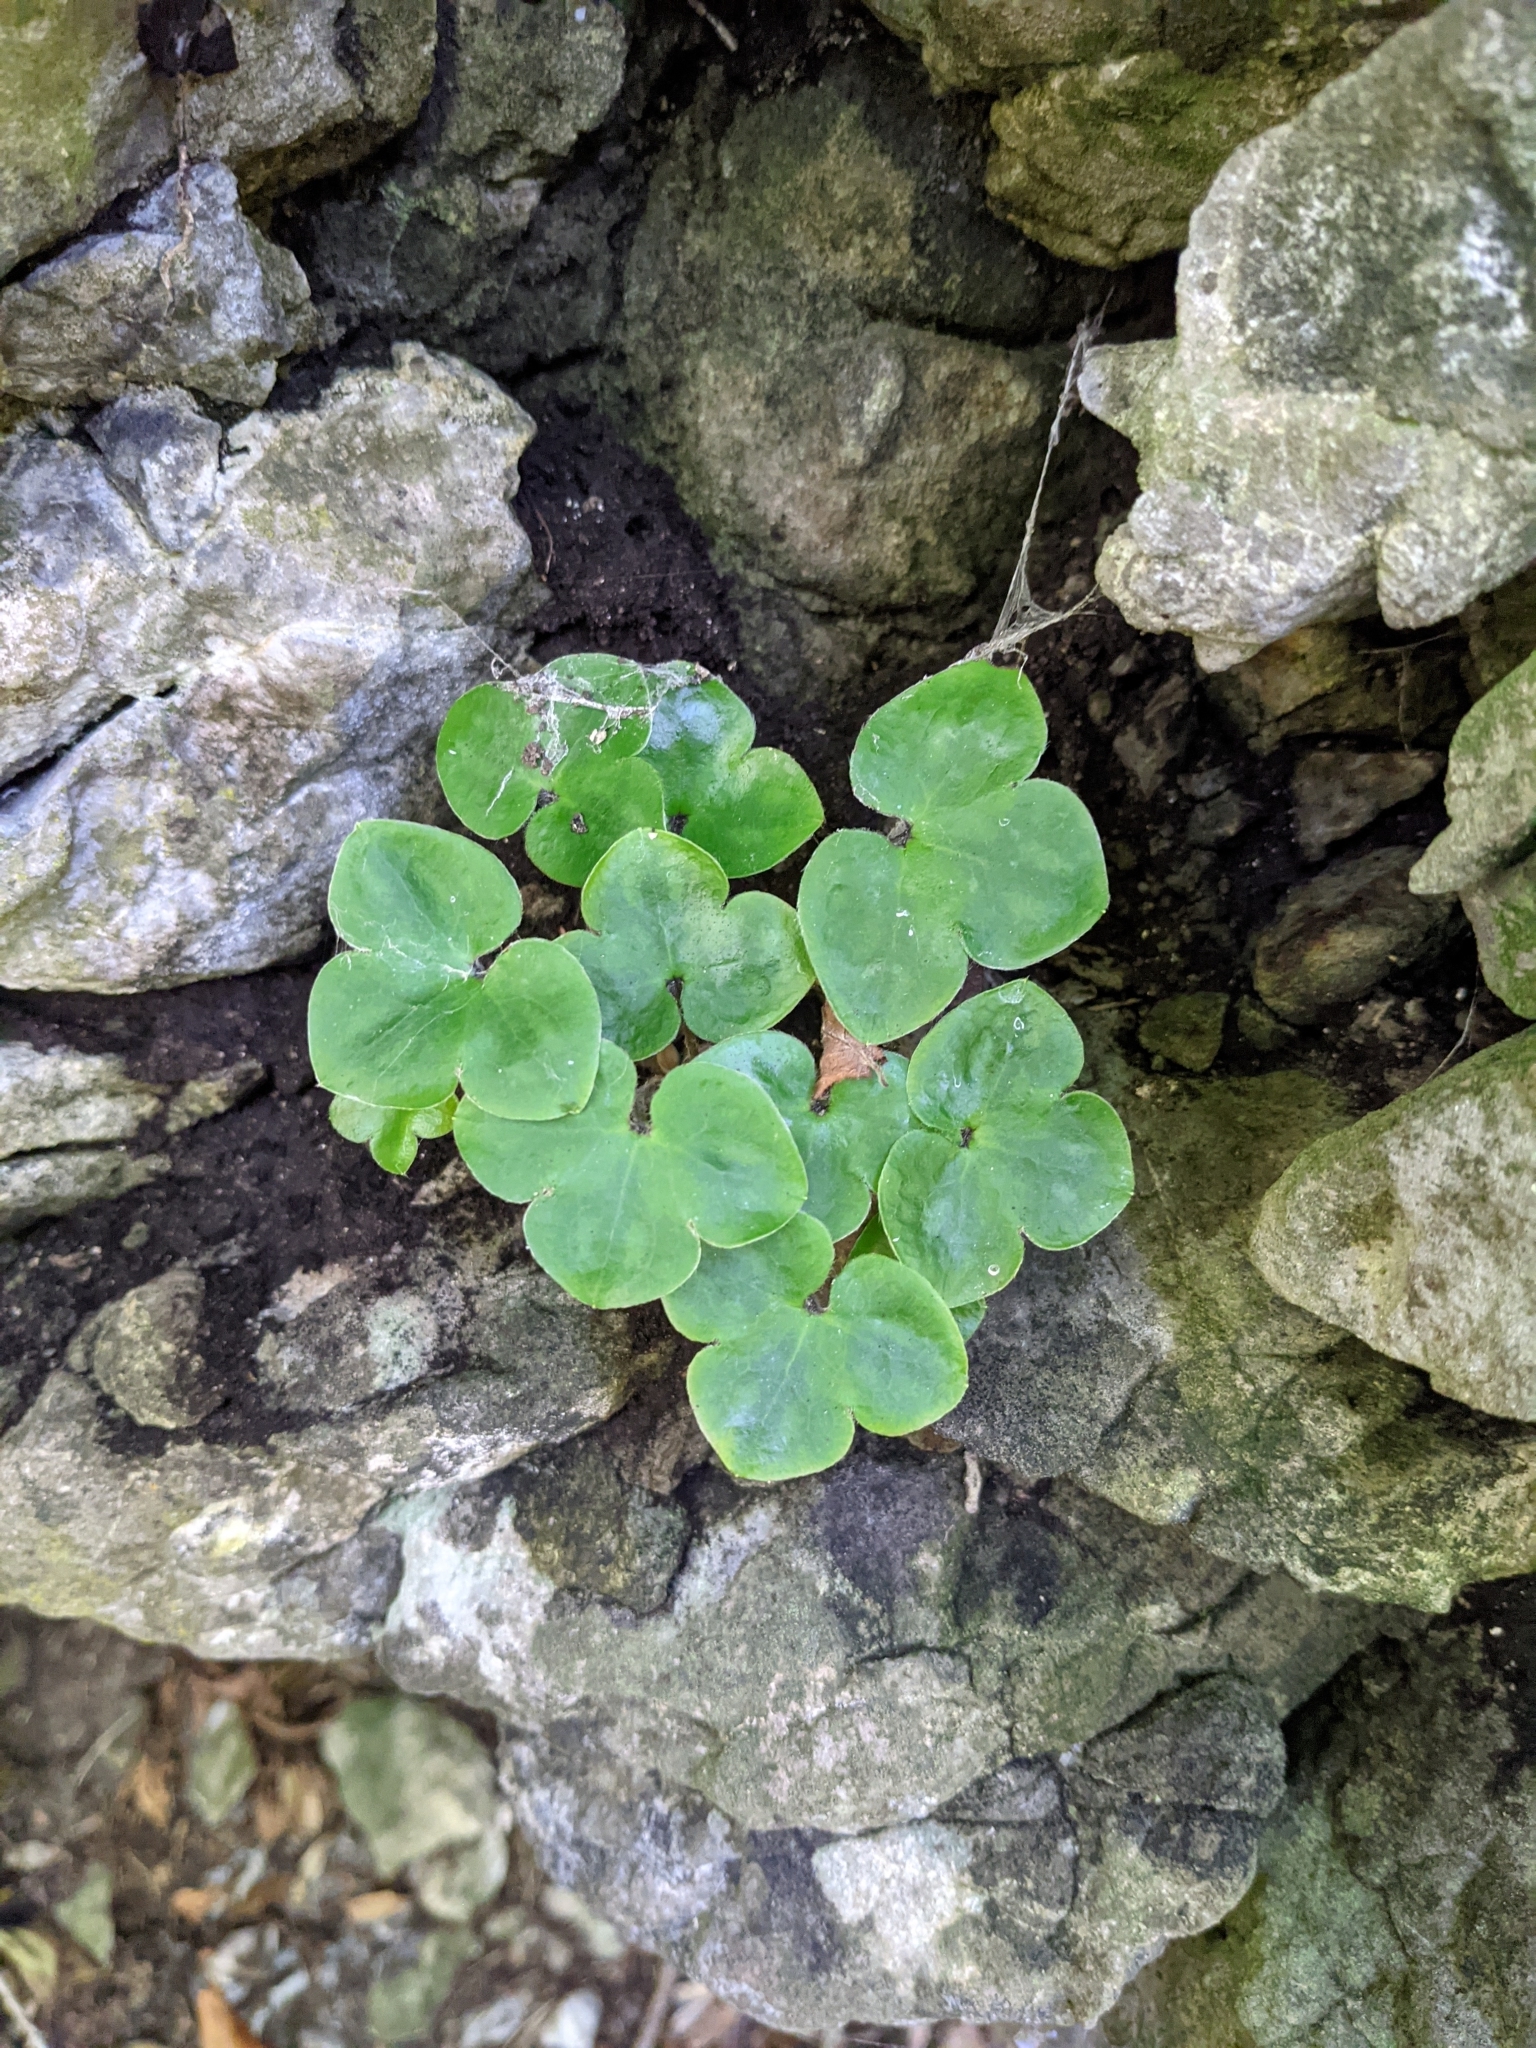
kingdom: Plantae
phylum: Tracheophyta
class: Magnoliopsida
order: Ranunculales
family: Ranunculaceae
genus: Hepatica
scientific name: Hepatica nobilis
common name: Liverleaf
